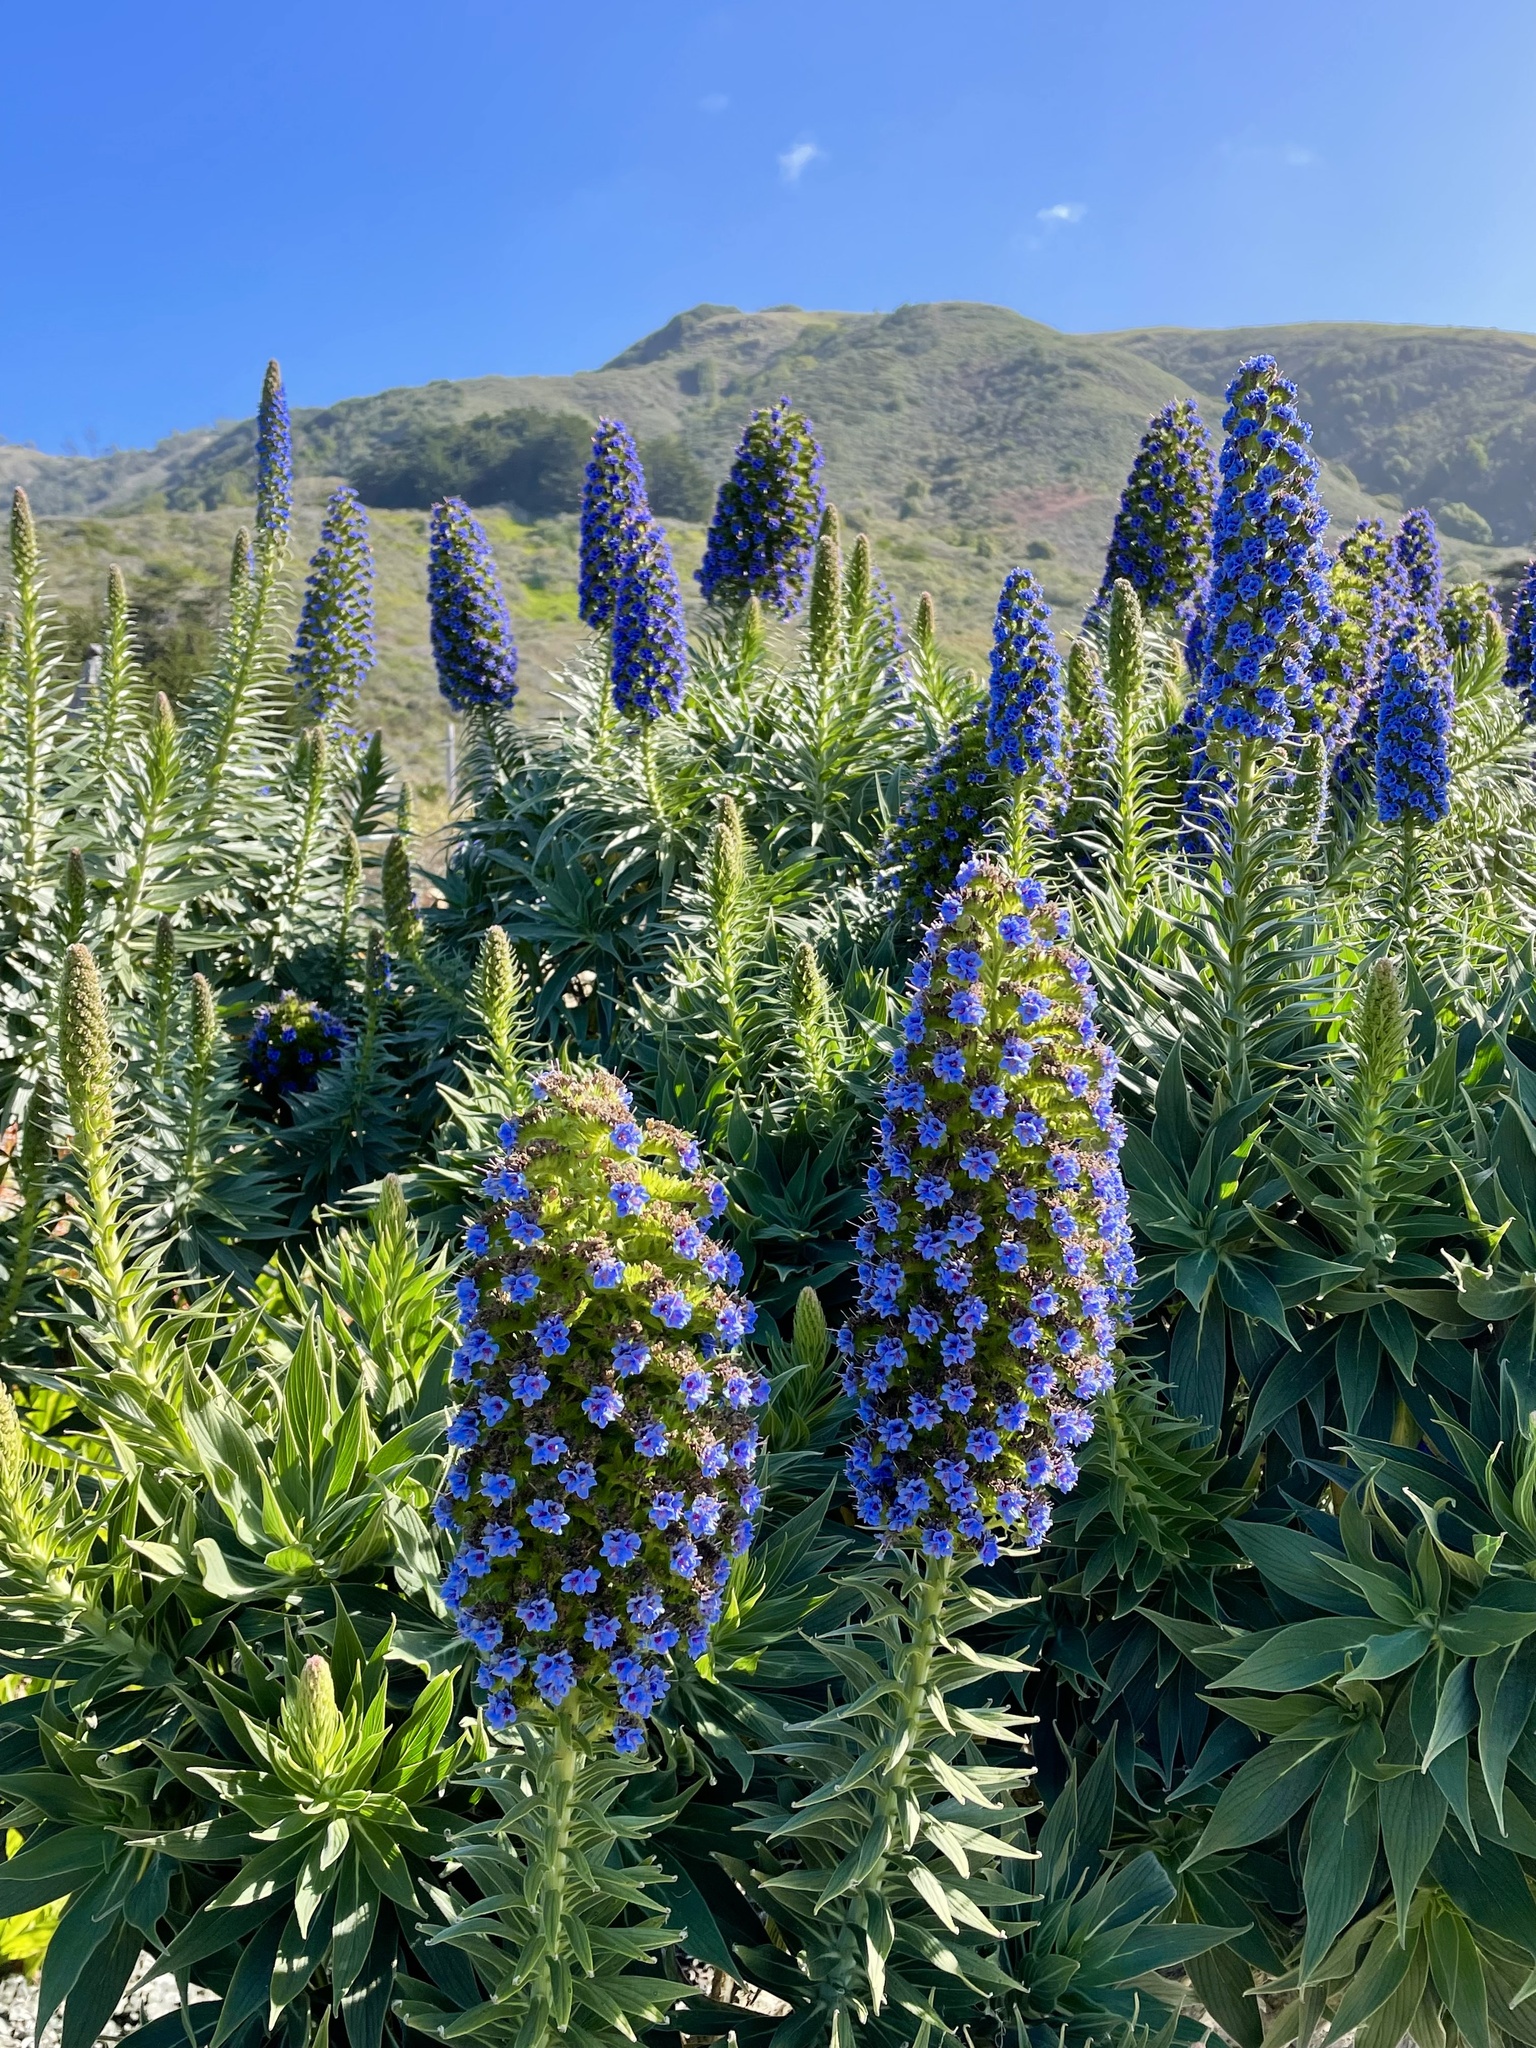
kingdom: Plantae
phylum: Tracheophyta
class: Magnoliopsida
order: Boraginales
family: Boraginaceae
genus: Echium
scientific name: Echium candicans
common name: Pride of madeira
